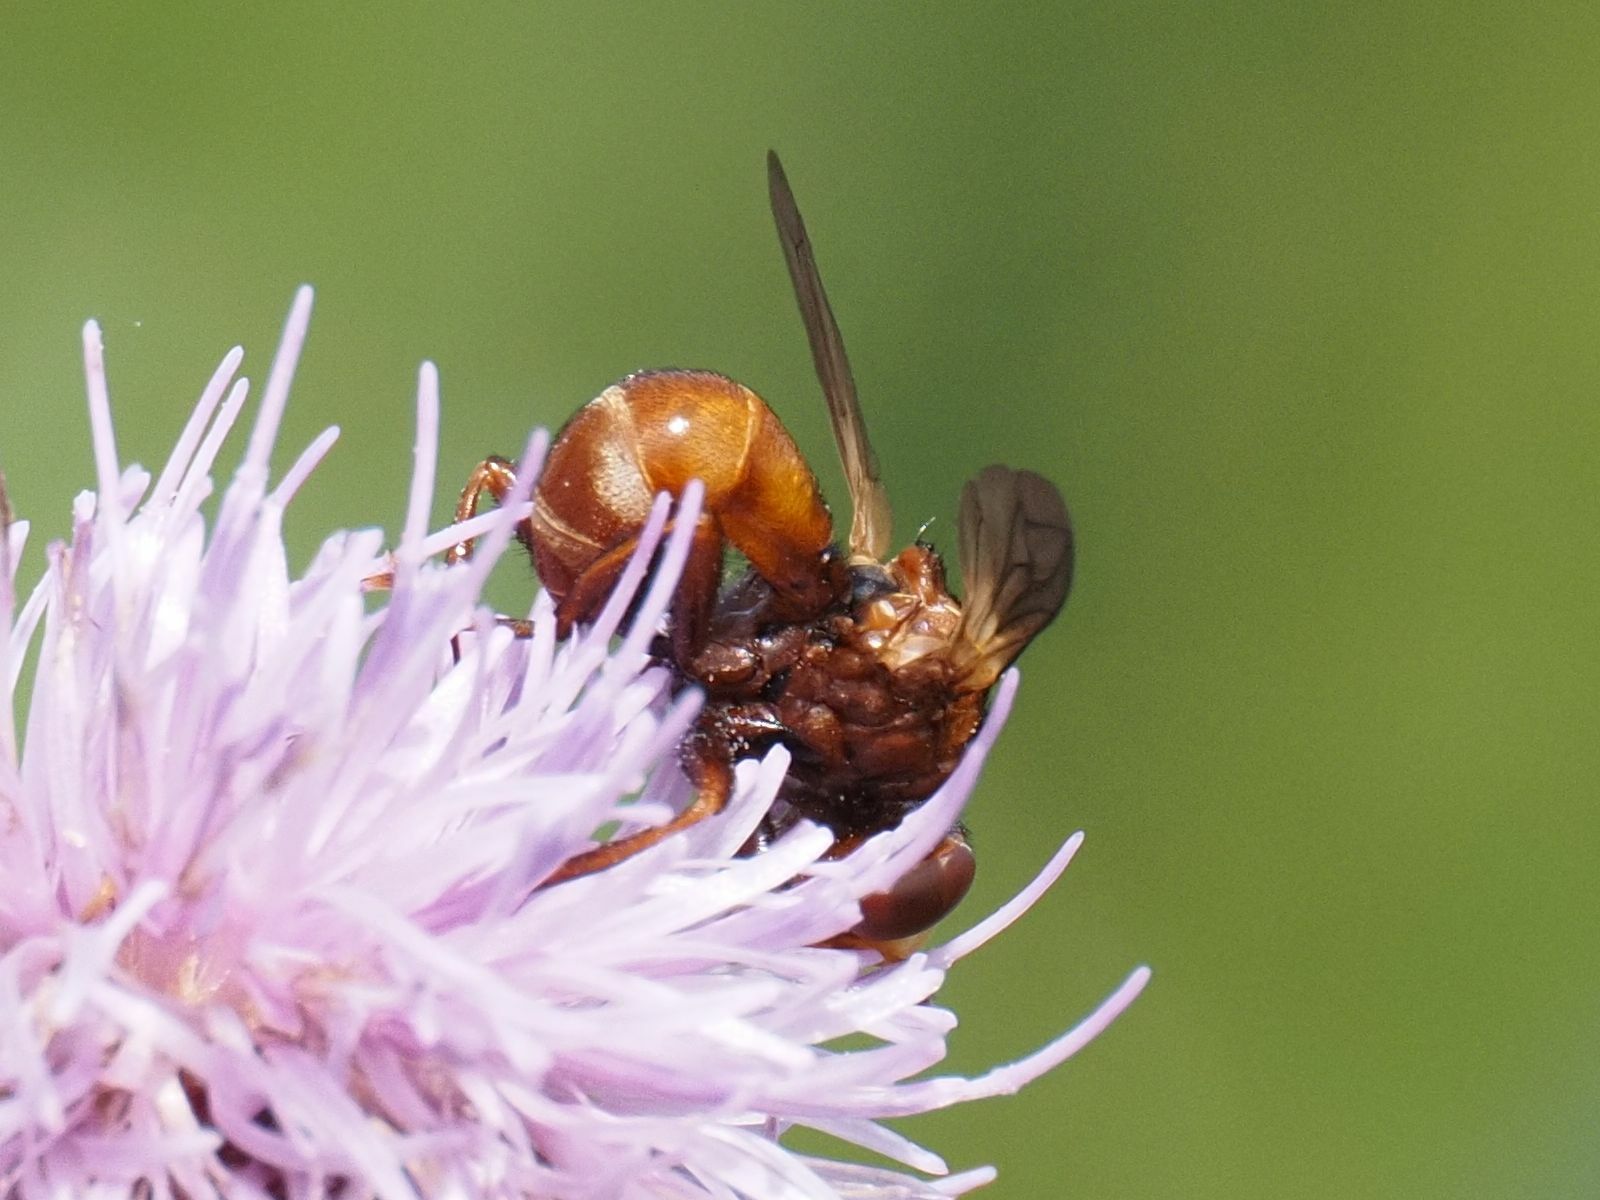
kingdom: Animalia
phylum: Arthropoda
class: Insecta
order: Diptera
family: Conopidae
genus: Sicus
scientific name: Sicus ferrugineus
